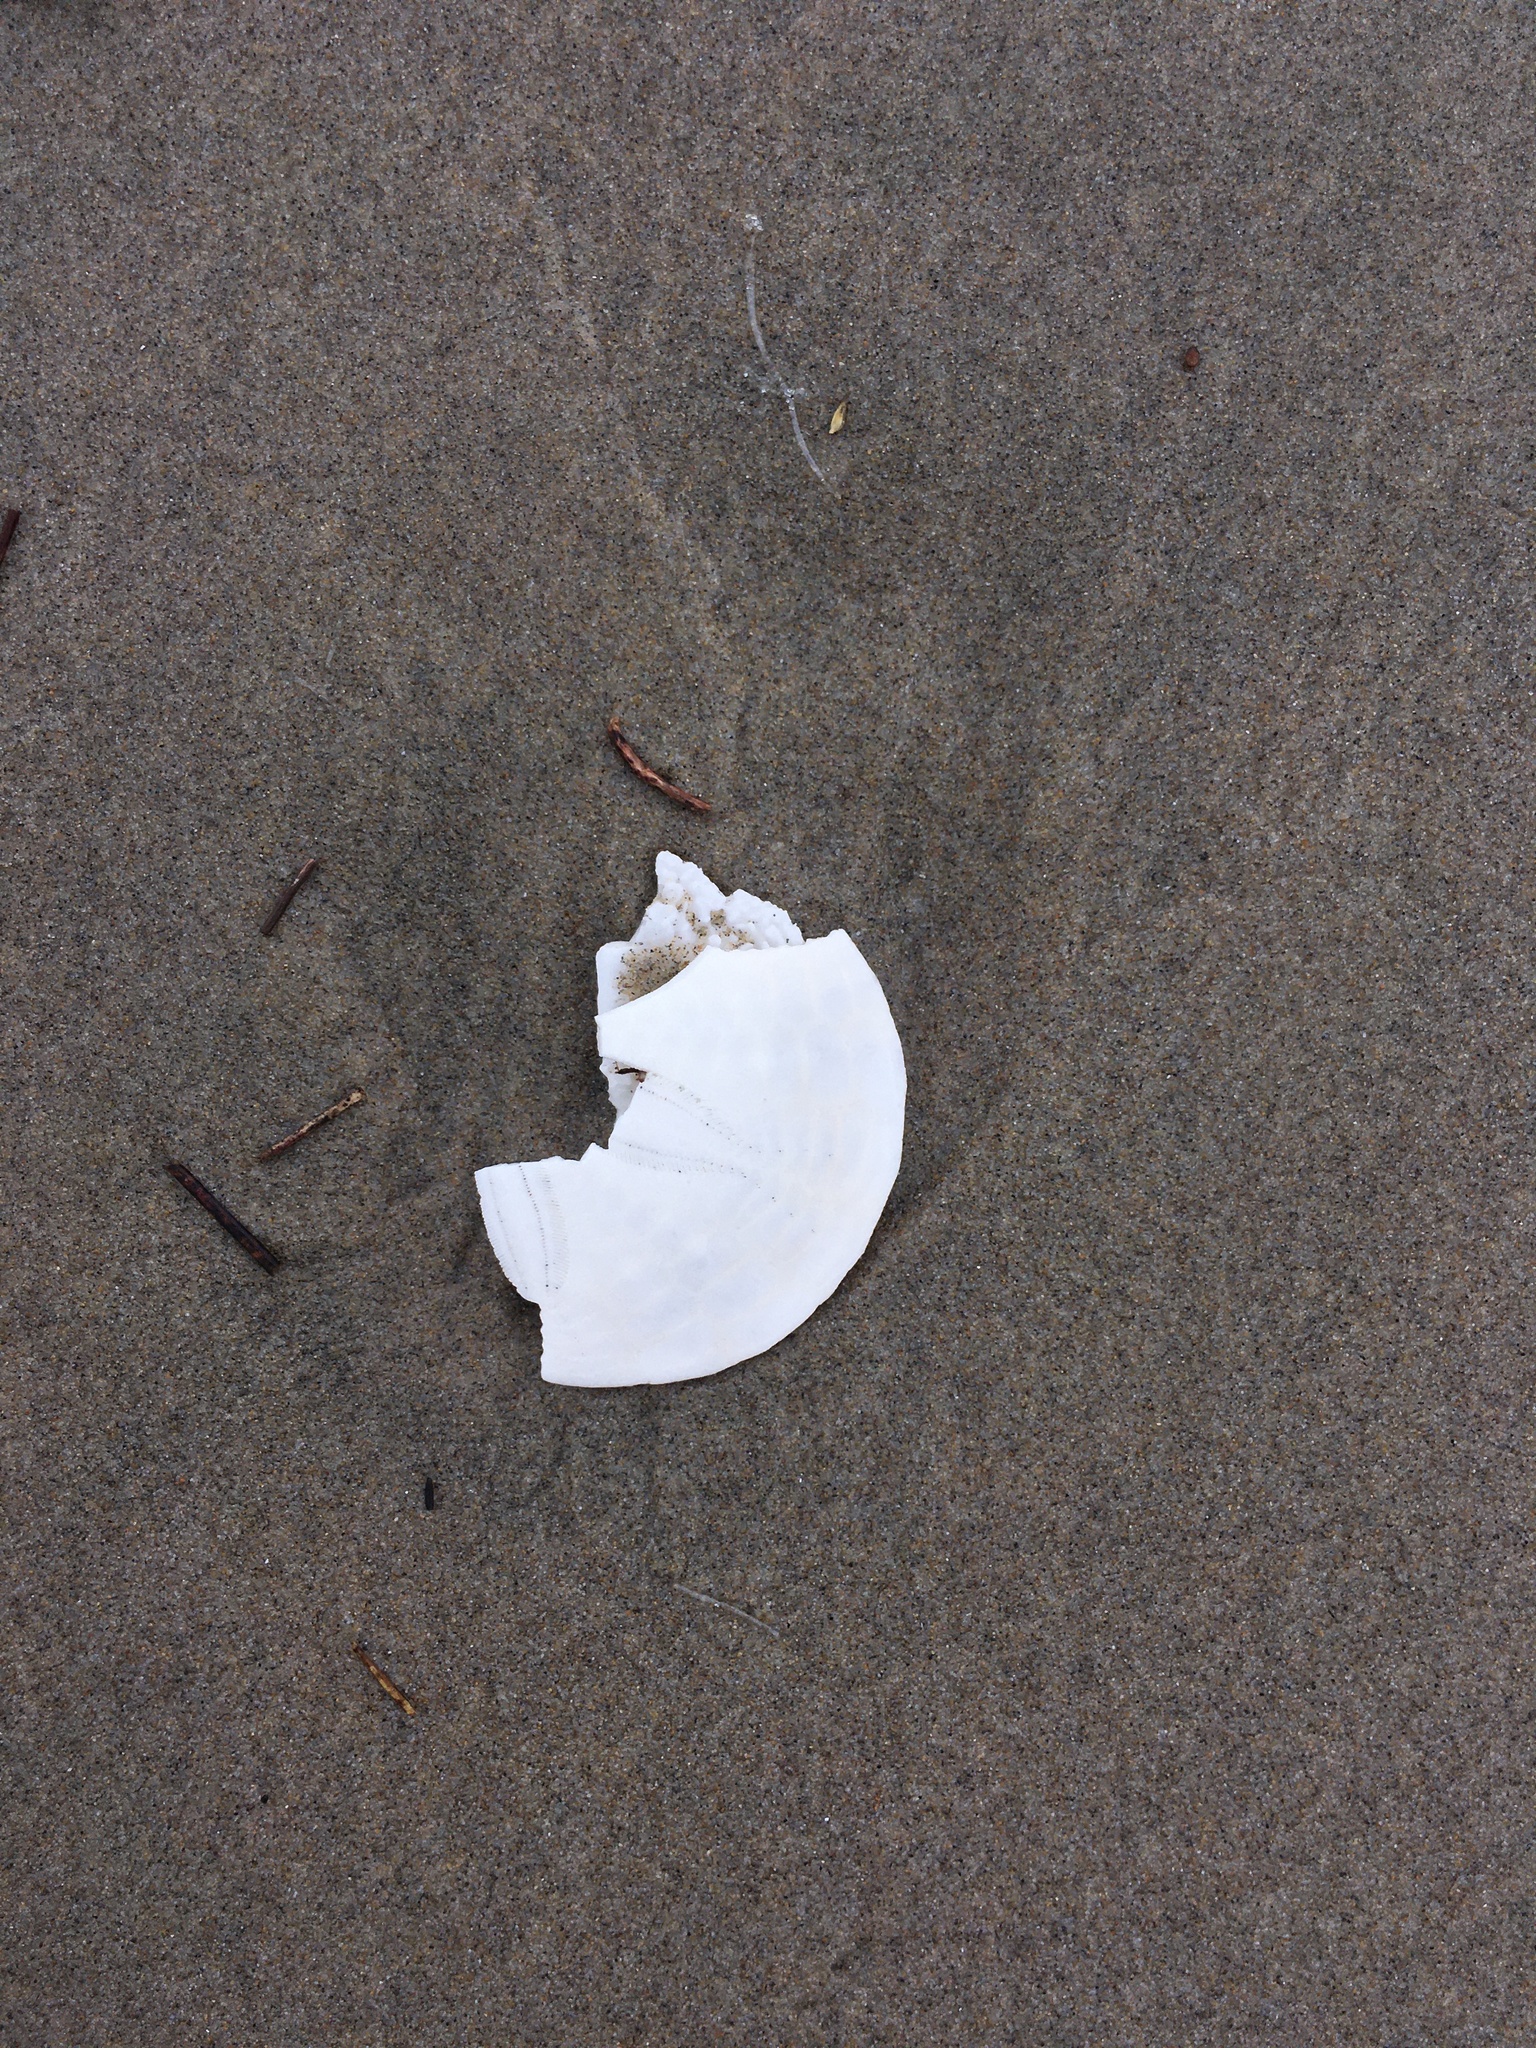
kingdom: Animalia
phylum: Echinodermata
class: Echinoidea
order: Echinolampadacea
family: Dendrasteridae
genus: Dendraster
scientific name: Dendraster excentricus
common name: Eccentric sand dollar sea urchin
